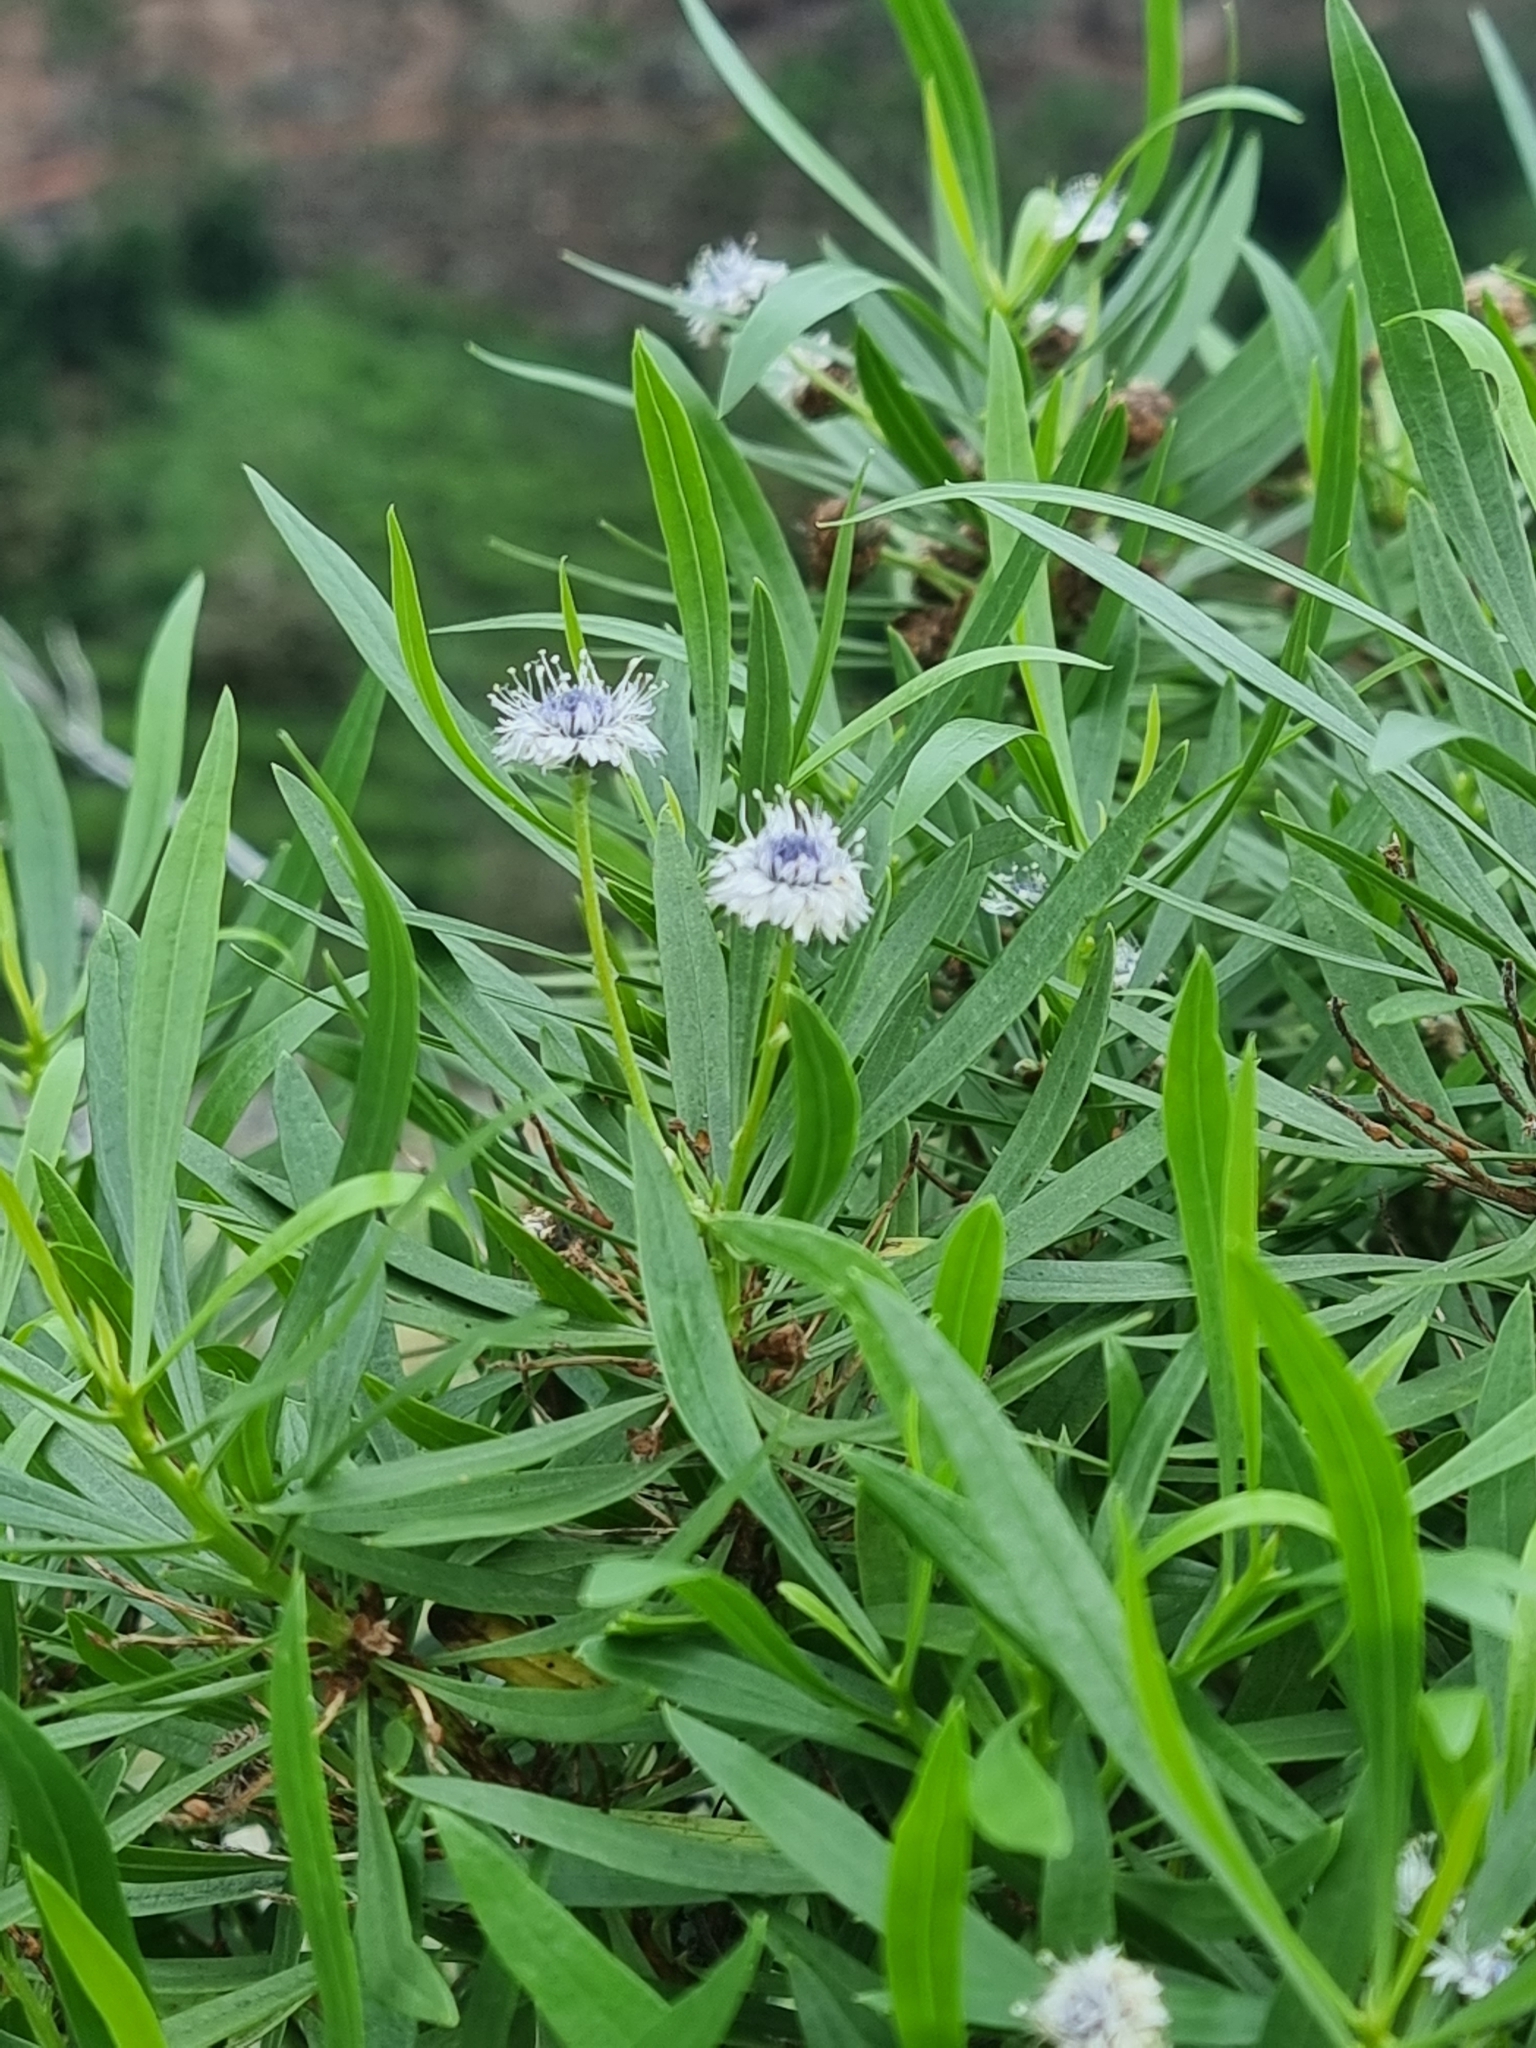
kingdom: Plantae
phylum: Tracheophyta
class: Magnoliopsida
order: Lamiales
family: Plantaginaceae
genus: Globularia
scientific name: Globularia salicina
